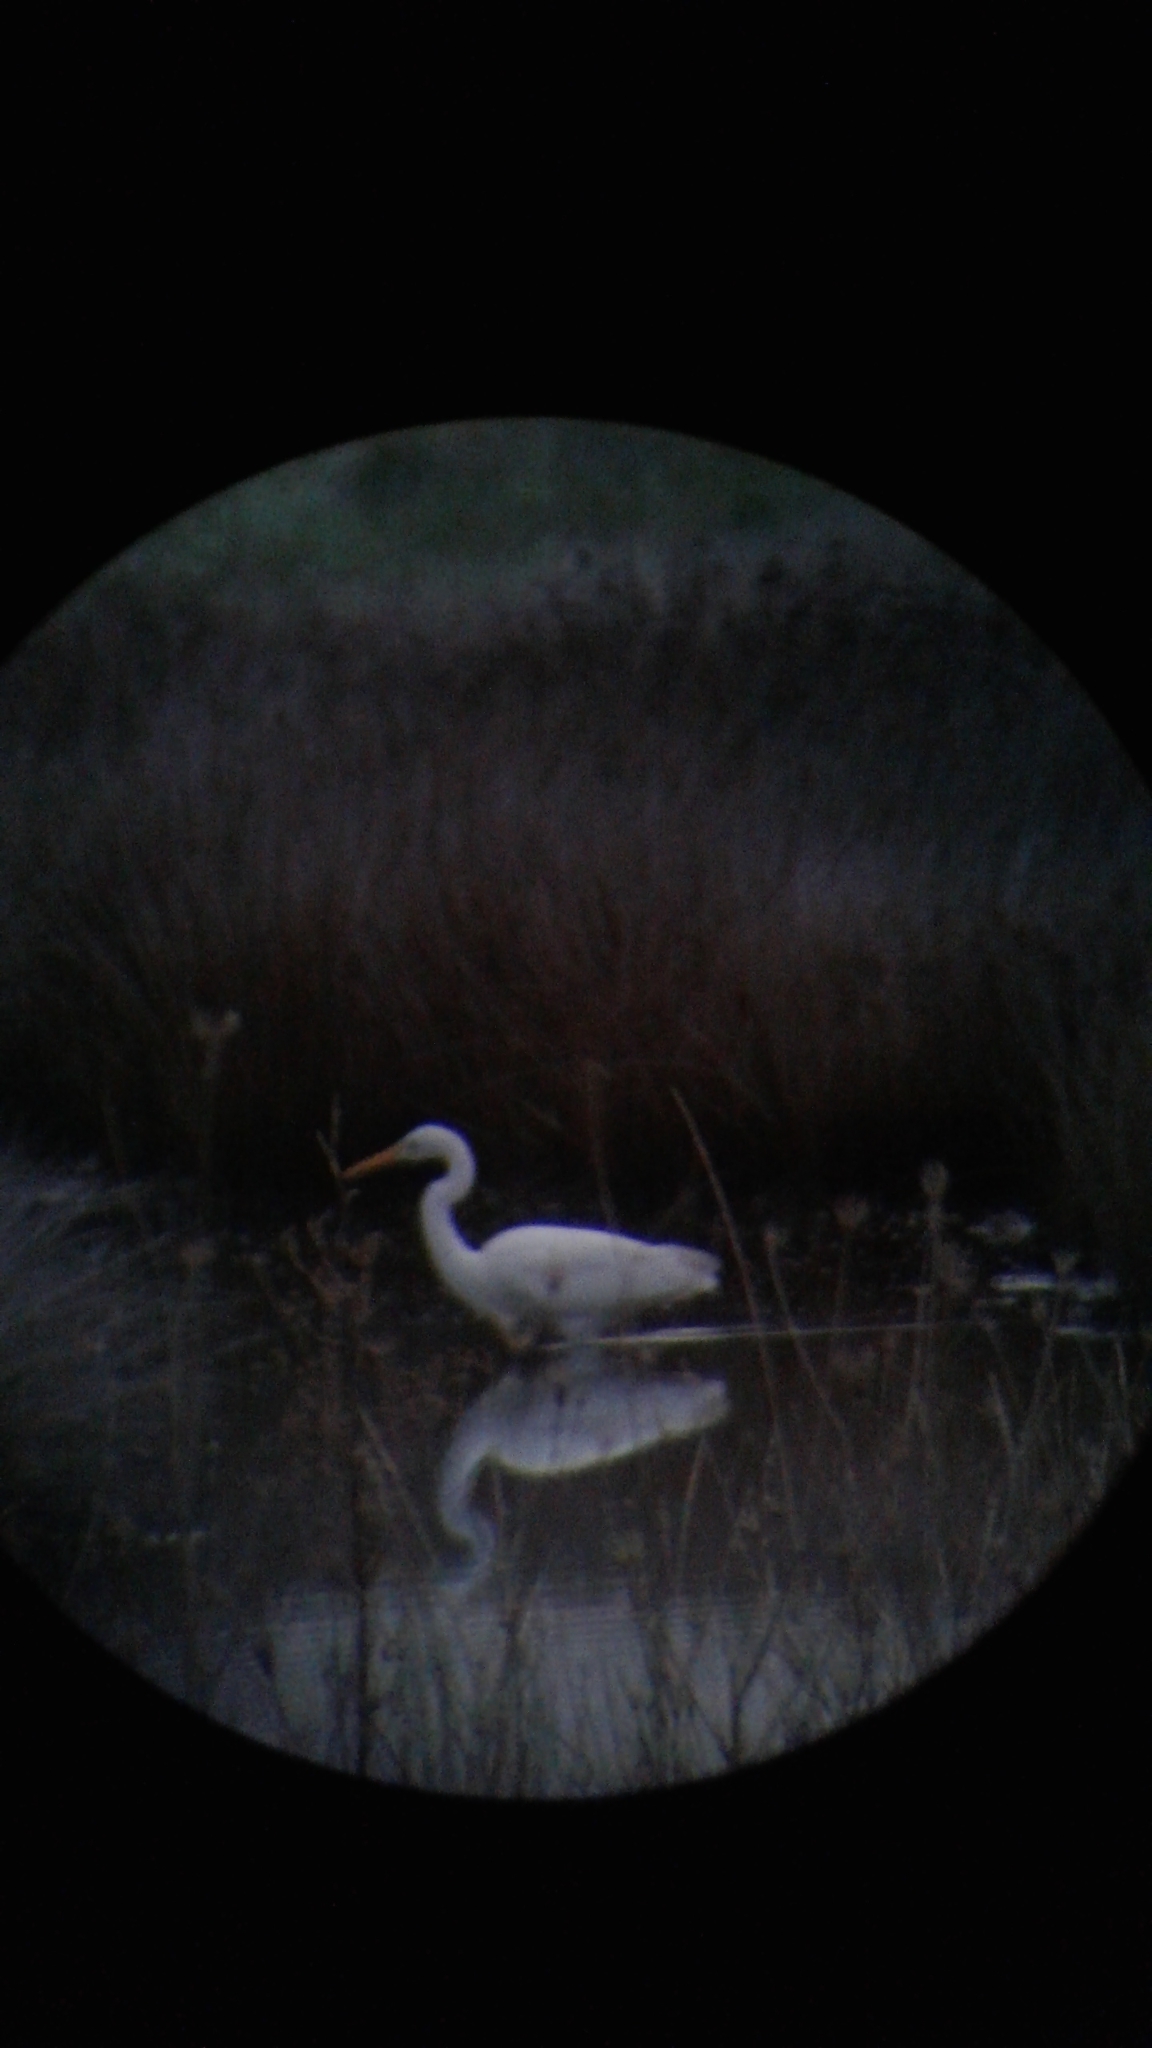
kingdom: Animalia
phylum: Chordata
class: Aves
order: Pelecaniformes
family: Ardeidae
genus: Ardea
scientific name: Ardea modesta
